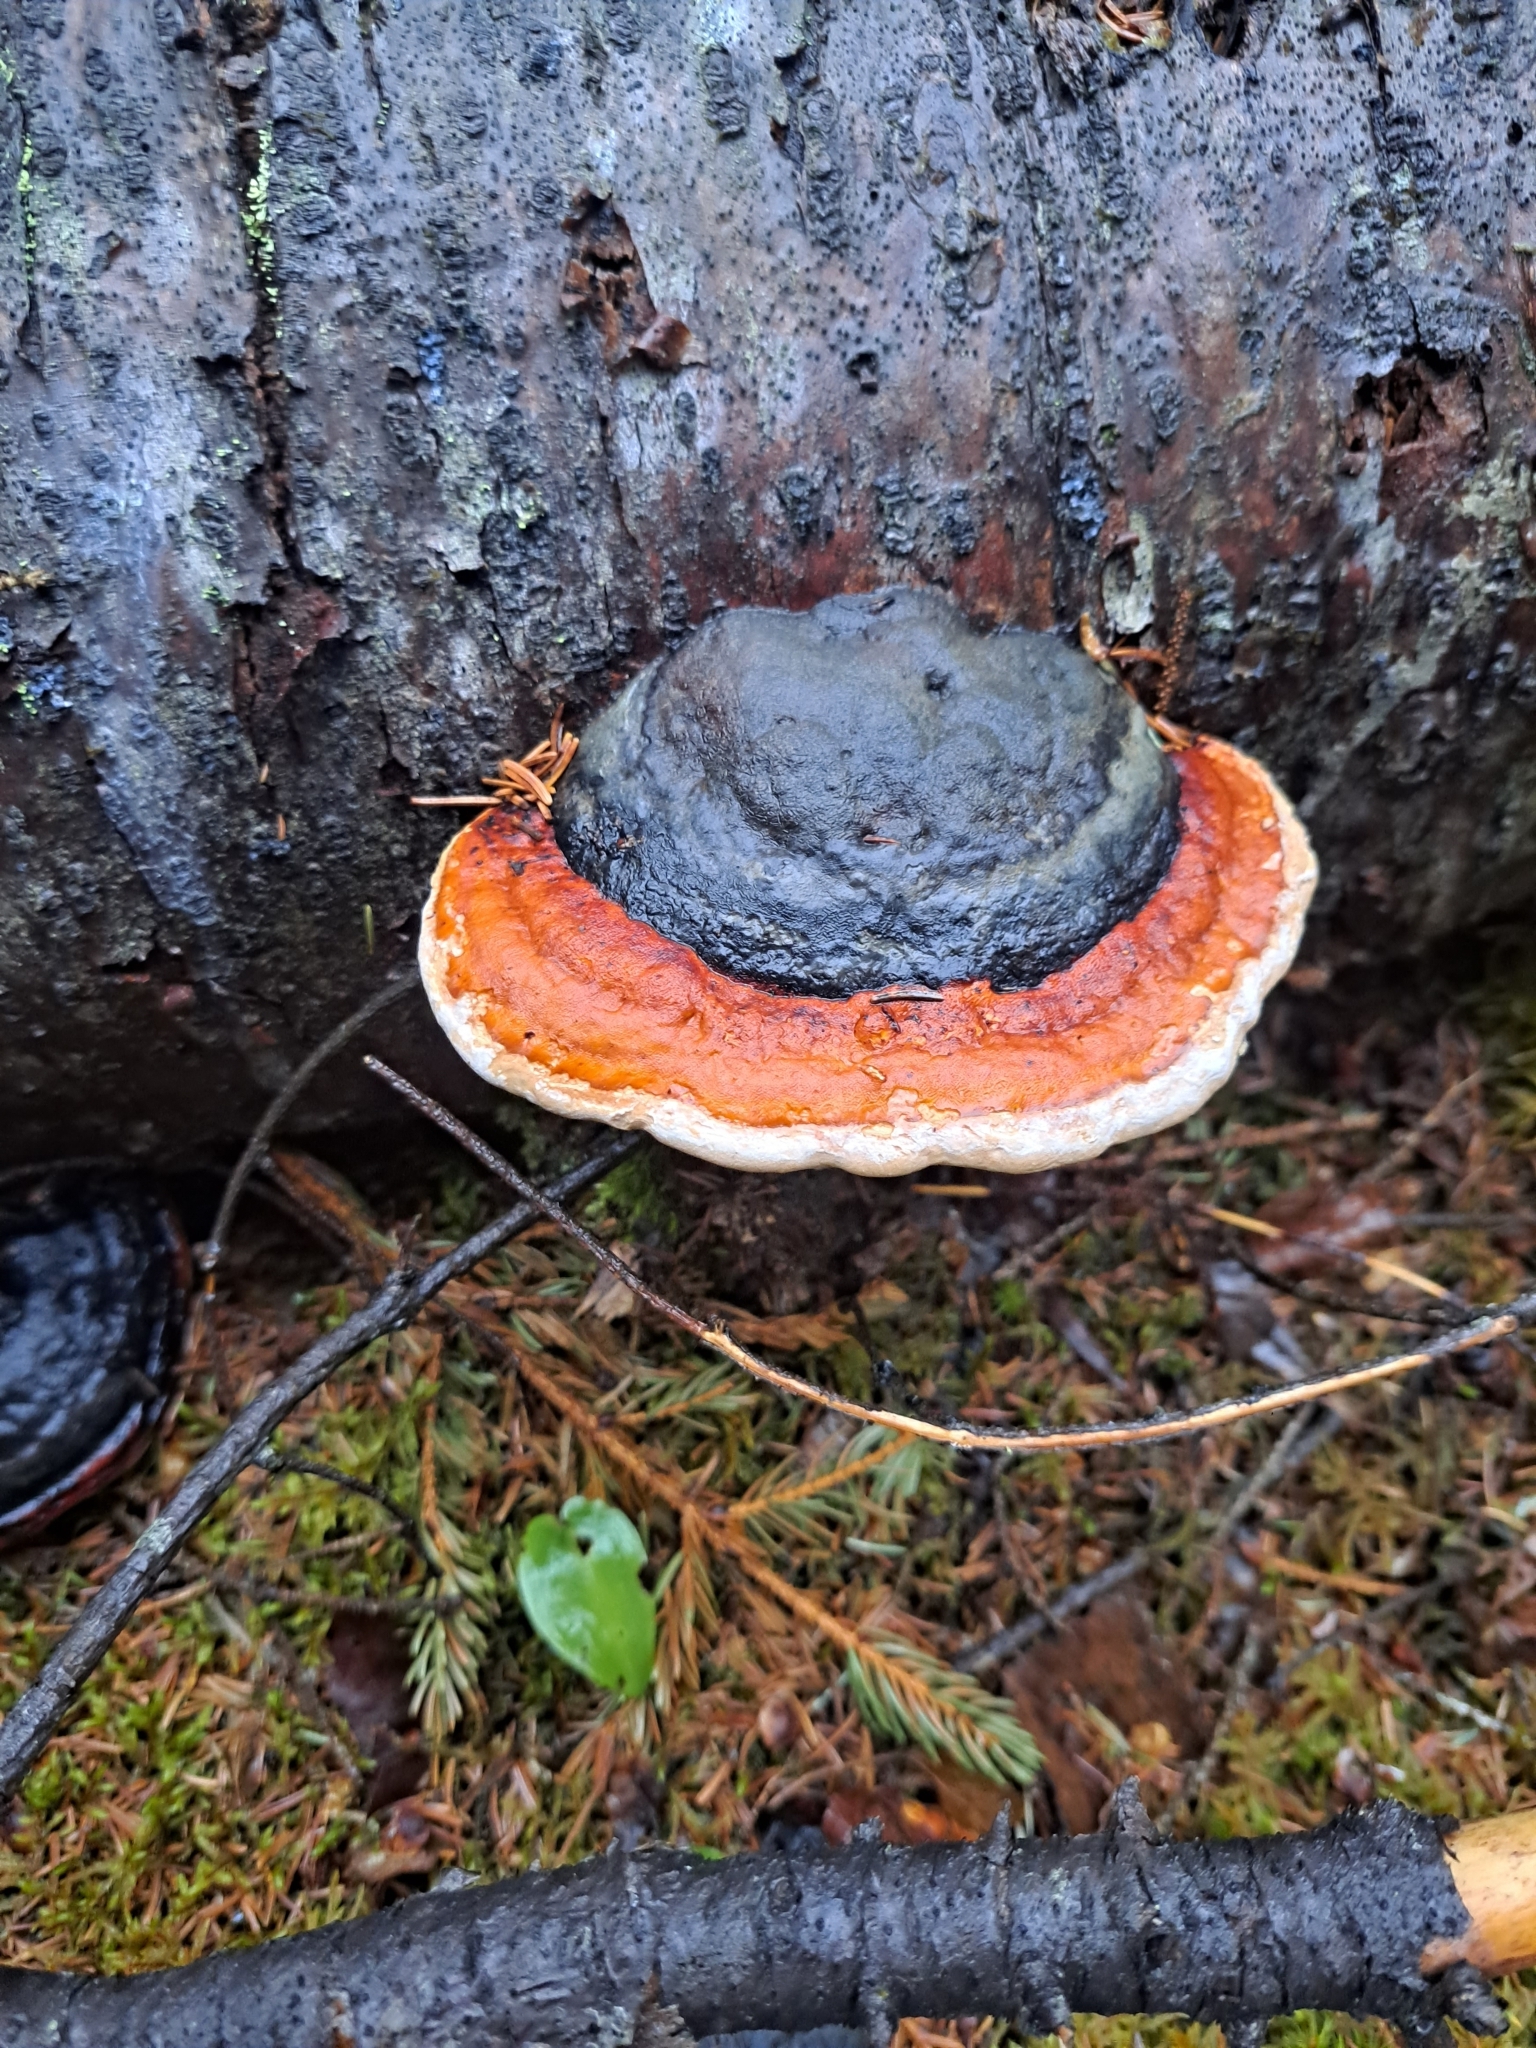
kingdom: Fungi
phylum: Basidiomycota
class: Agaricomycetes
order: Polyporales
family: Fomitopsidaceae
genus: Fomitopsis
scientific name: Fomitopsis mounceae
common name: Northern red belt
